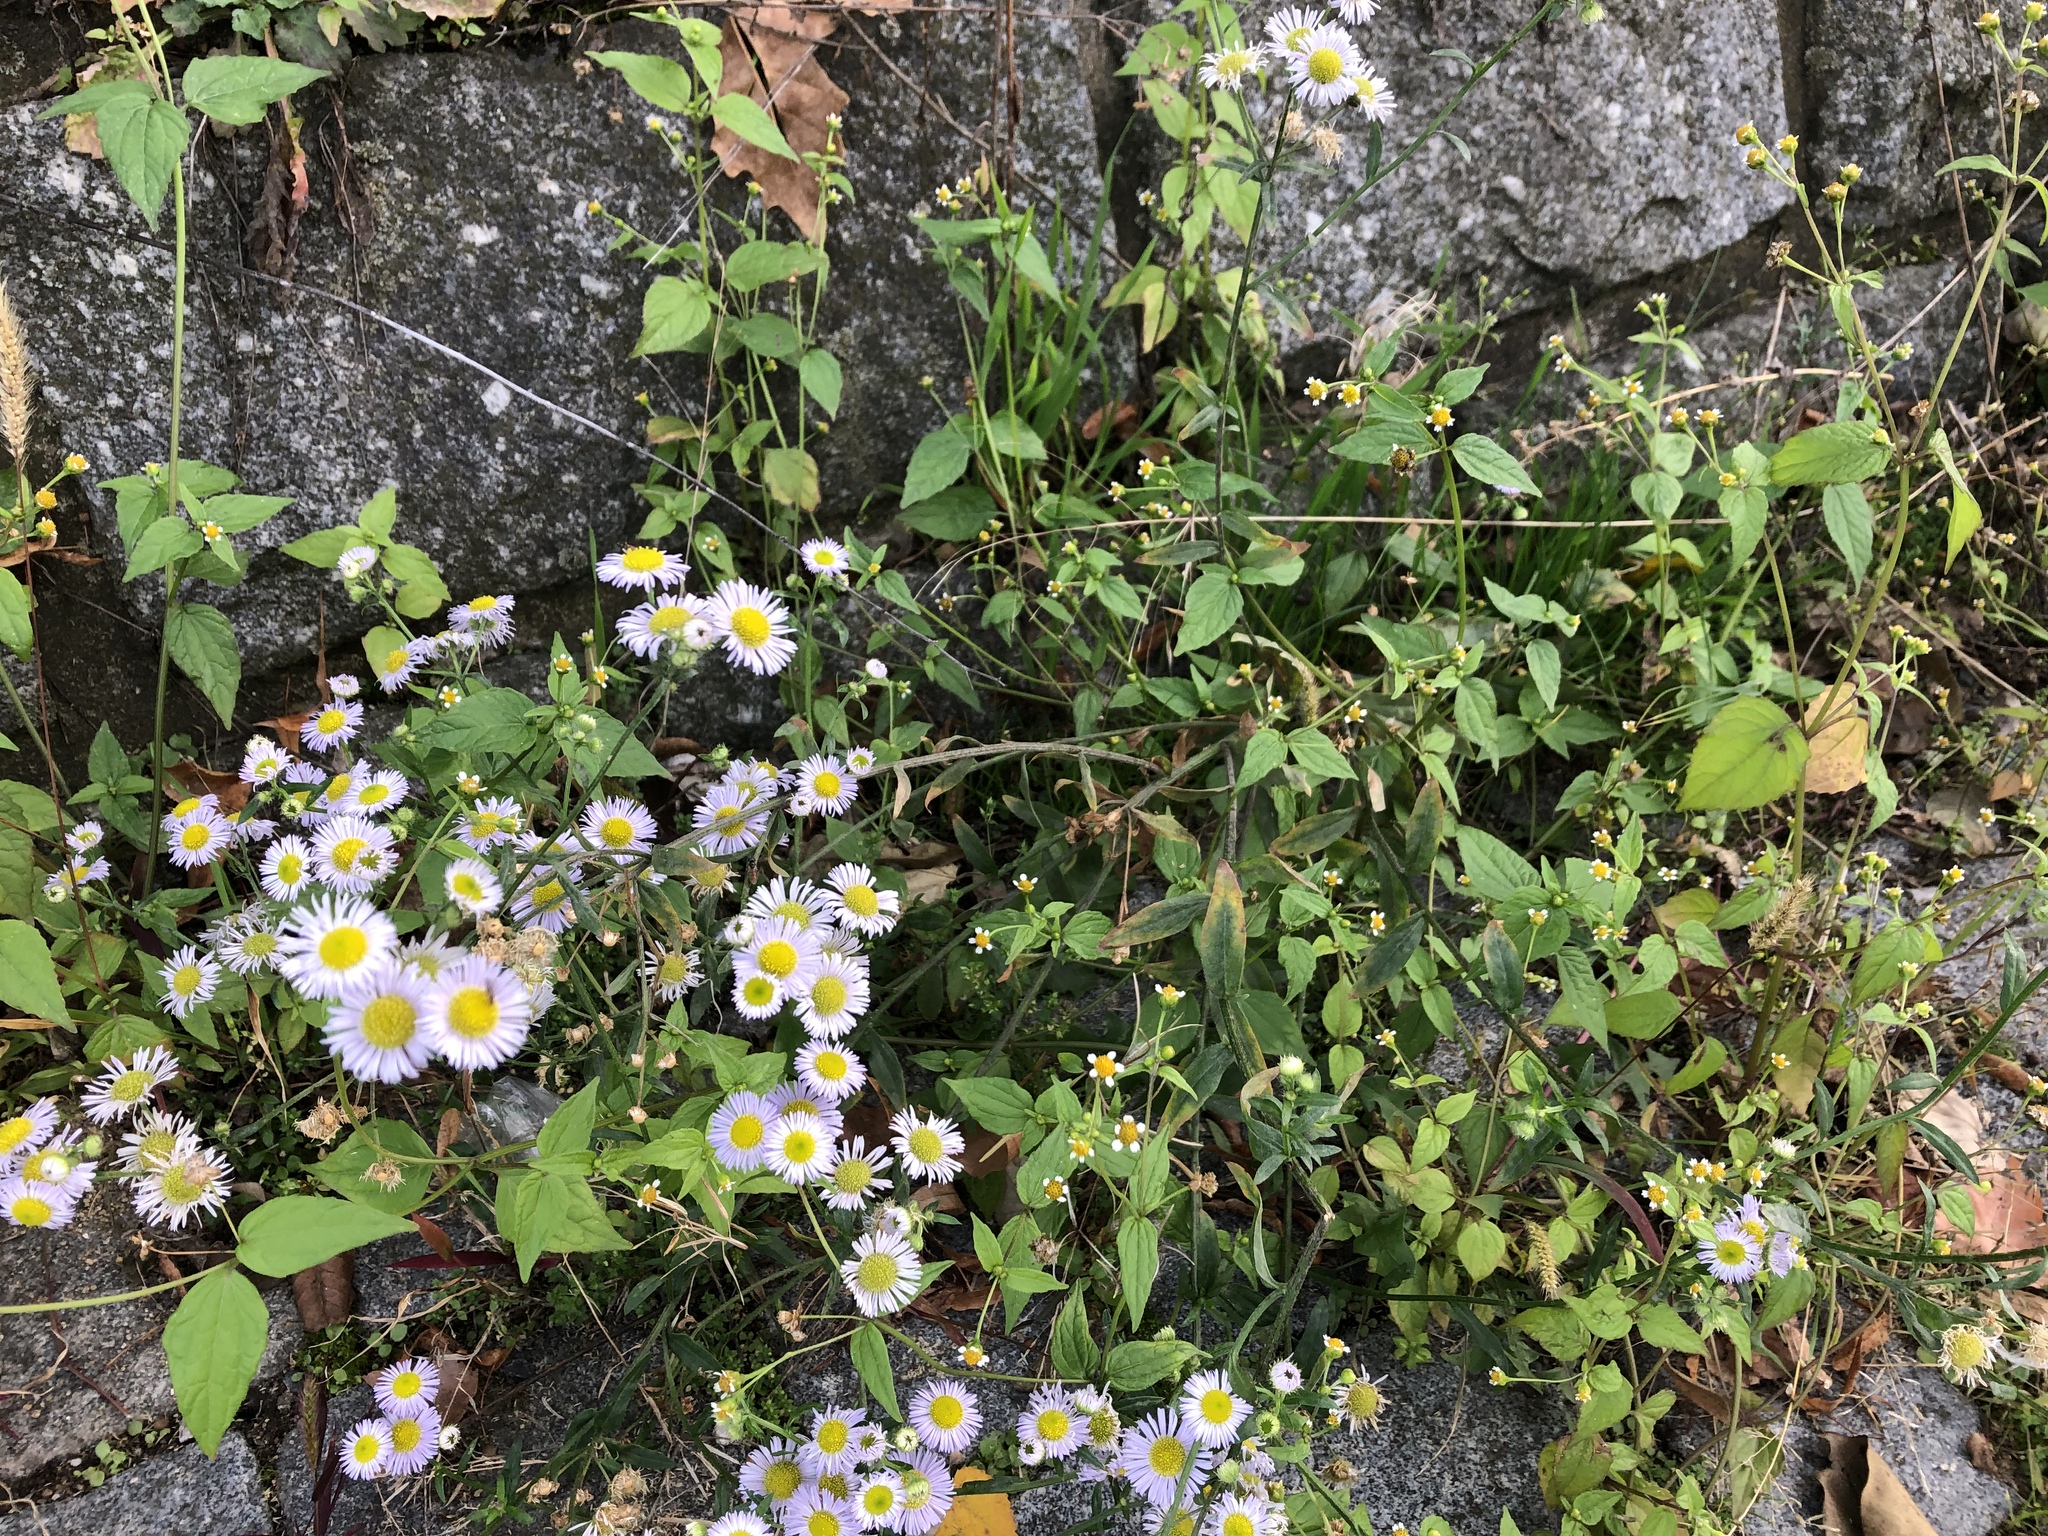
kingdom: Plantae
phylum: Tracheophyta
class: Magnoliopsida
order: Asterales
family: Asteraceae
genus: Erigeron
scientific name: Erigeron annuus
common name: Tall fleabane
